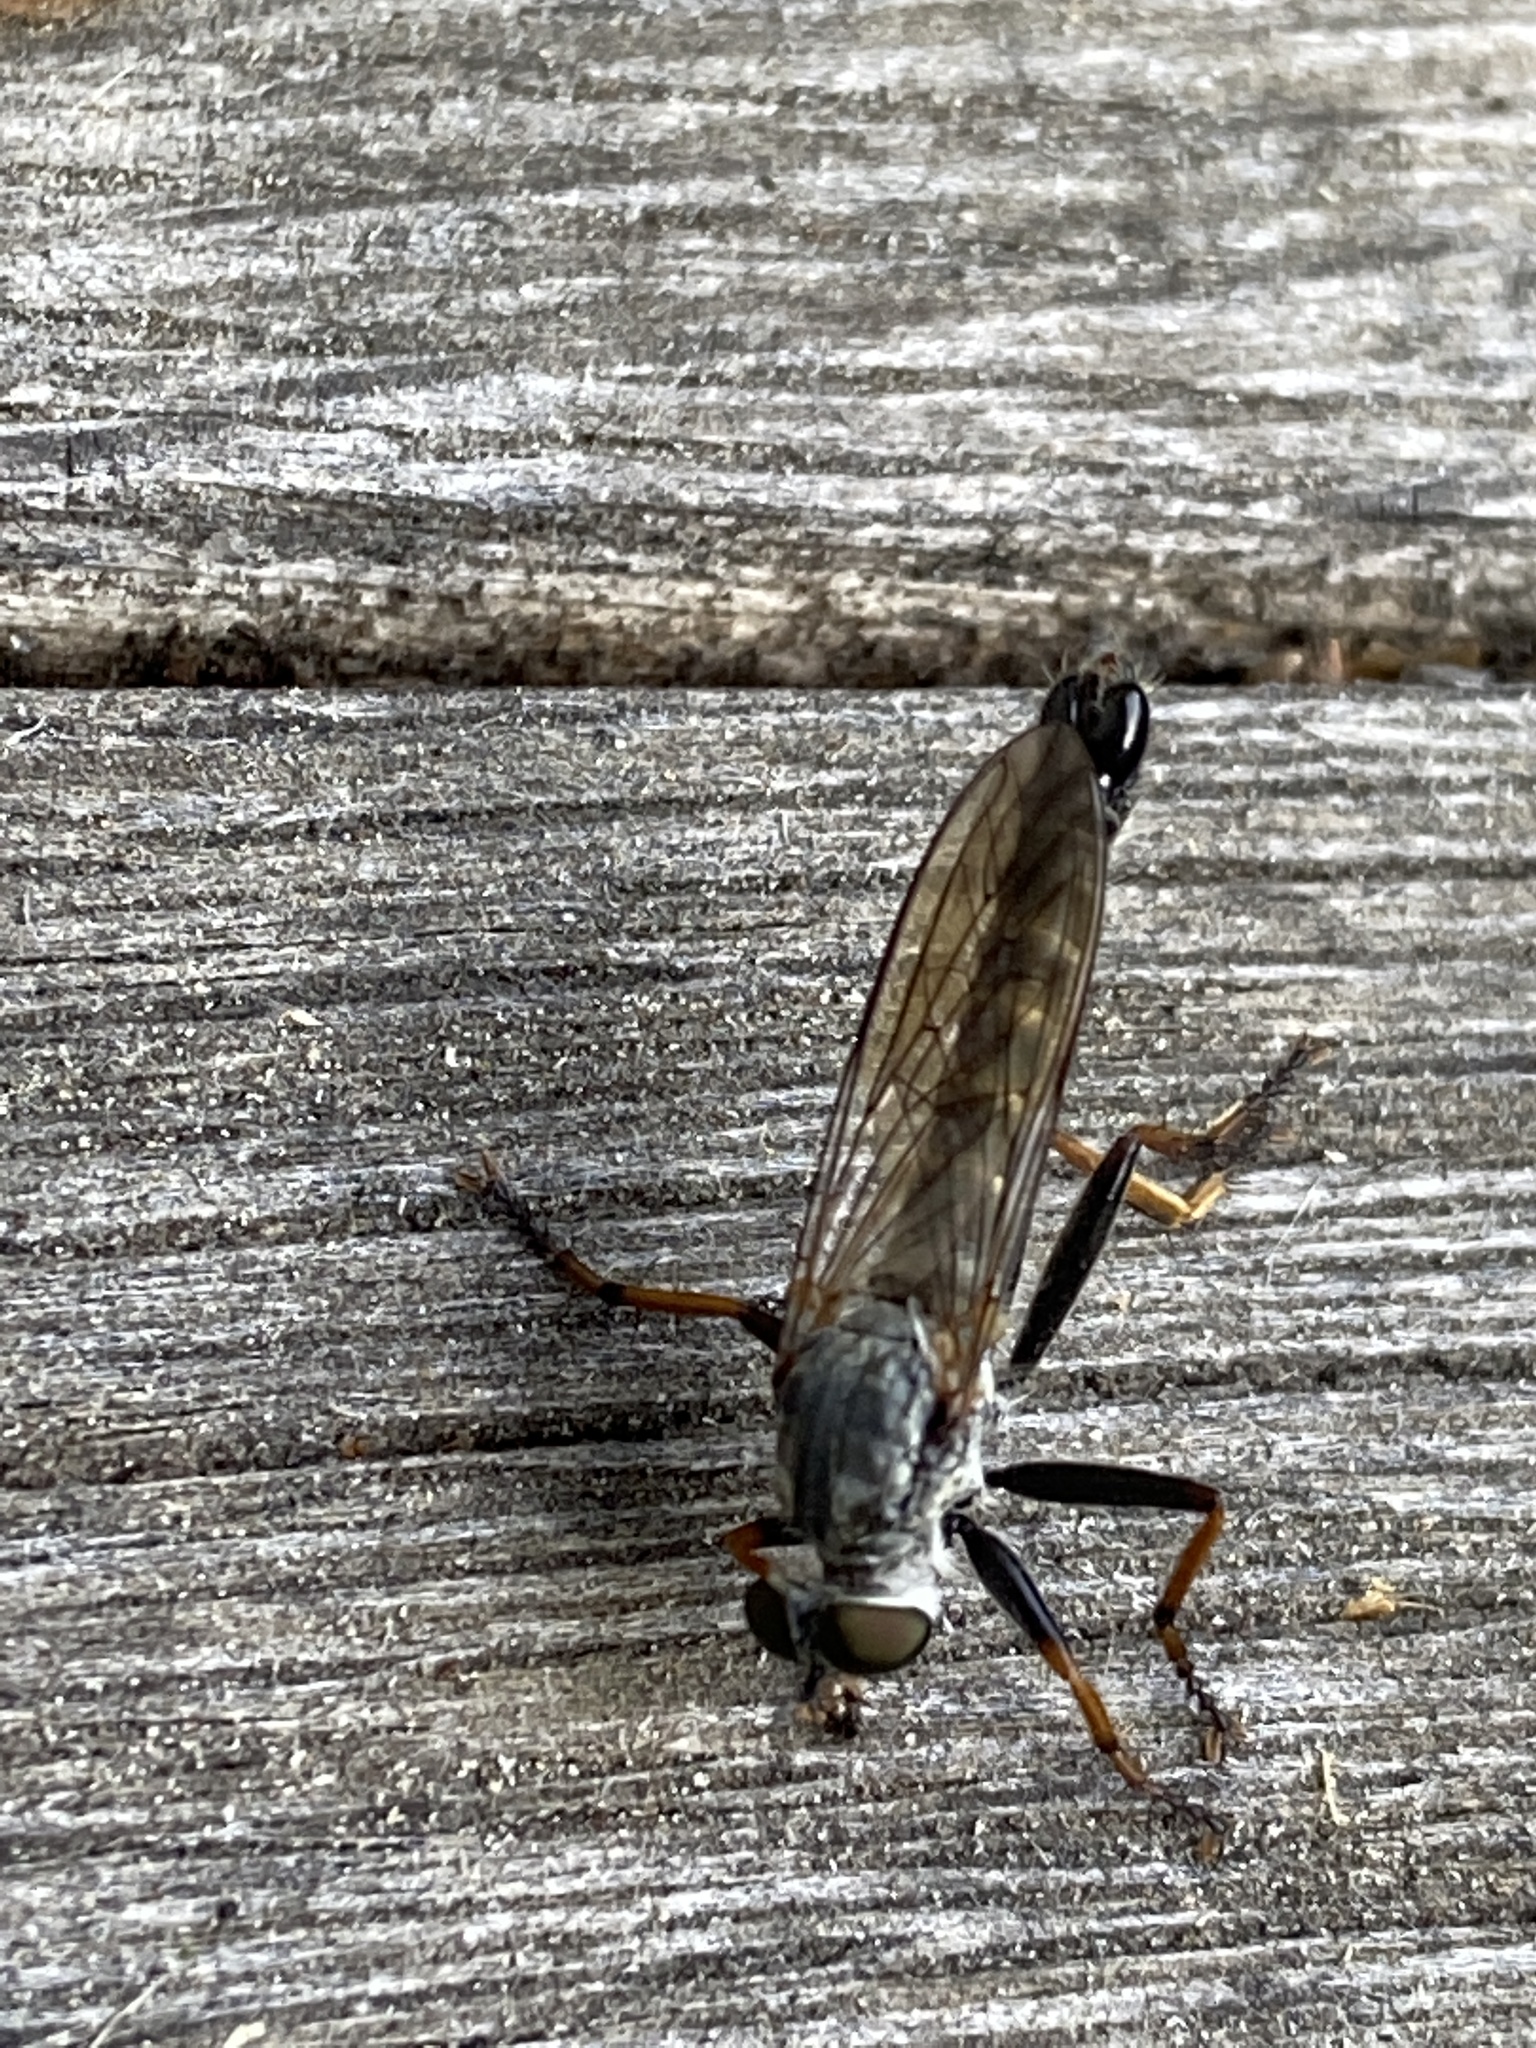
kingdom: Animalia
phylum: Arthropoda
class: Insecta
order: Diptera
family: Asilidae
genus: Paritamus
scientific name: Paritamus geniculatus
